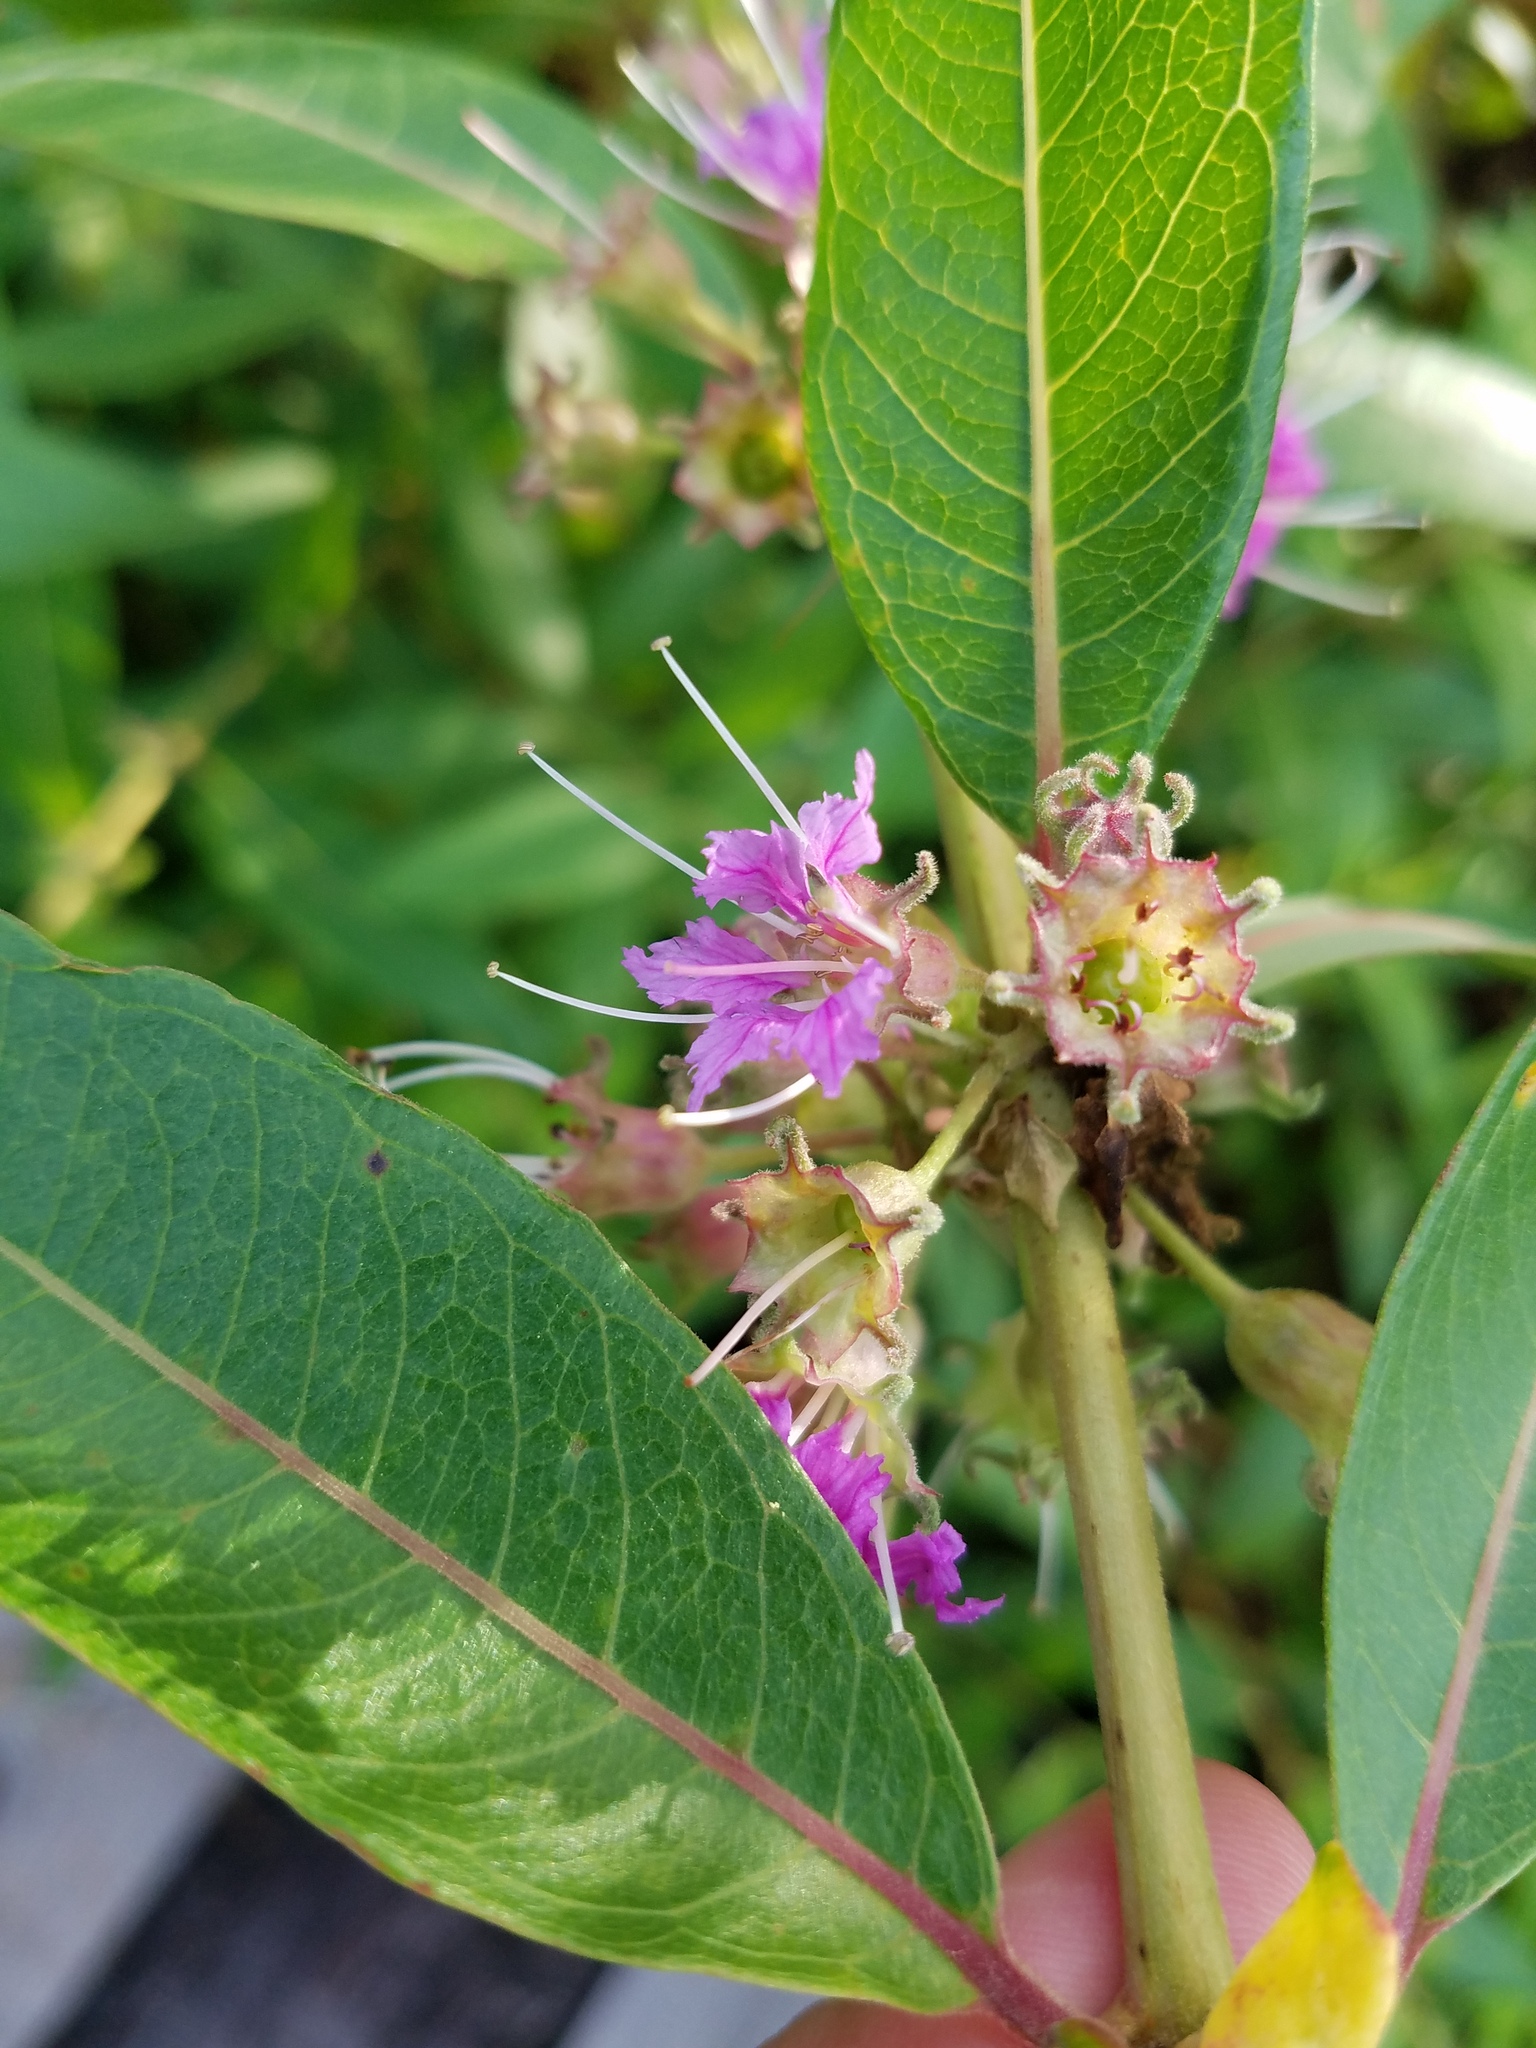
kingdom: Plantae
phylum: Tracheophyta
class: Magnoliopsida
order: Myrtales
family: Lythraceae
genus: Decodon
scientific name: Decodon verticillatus
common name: Hairy swamp loosestrife
